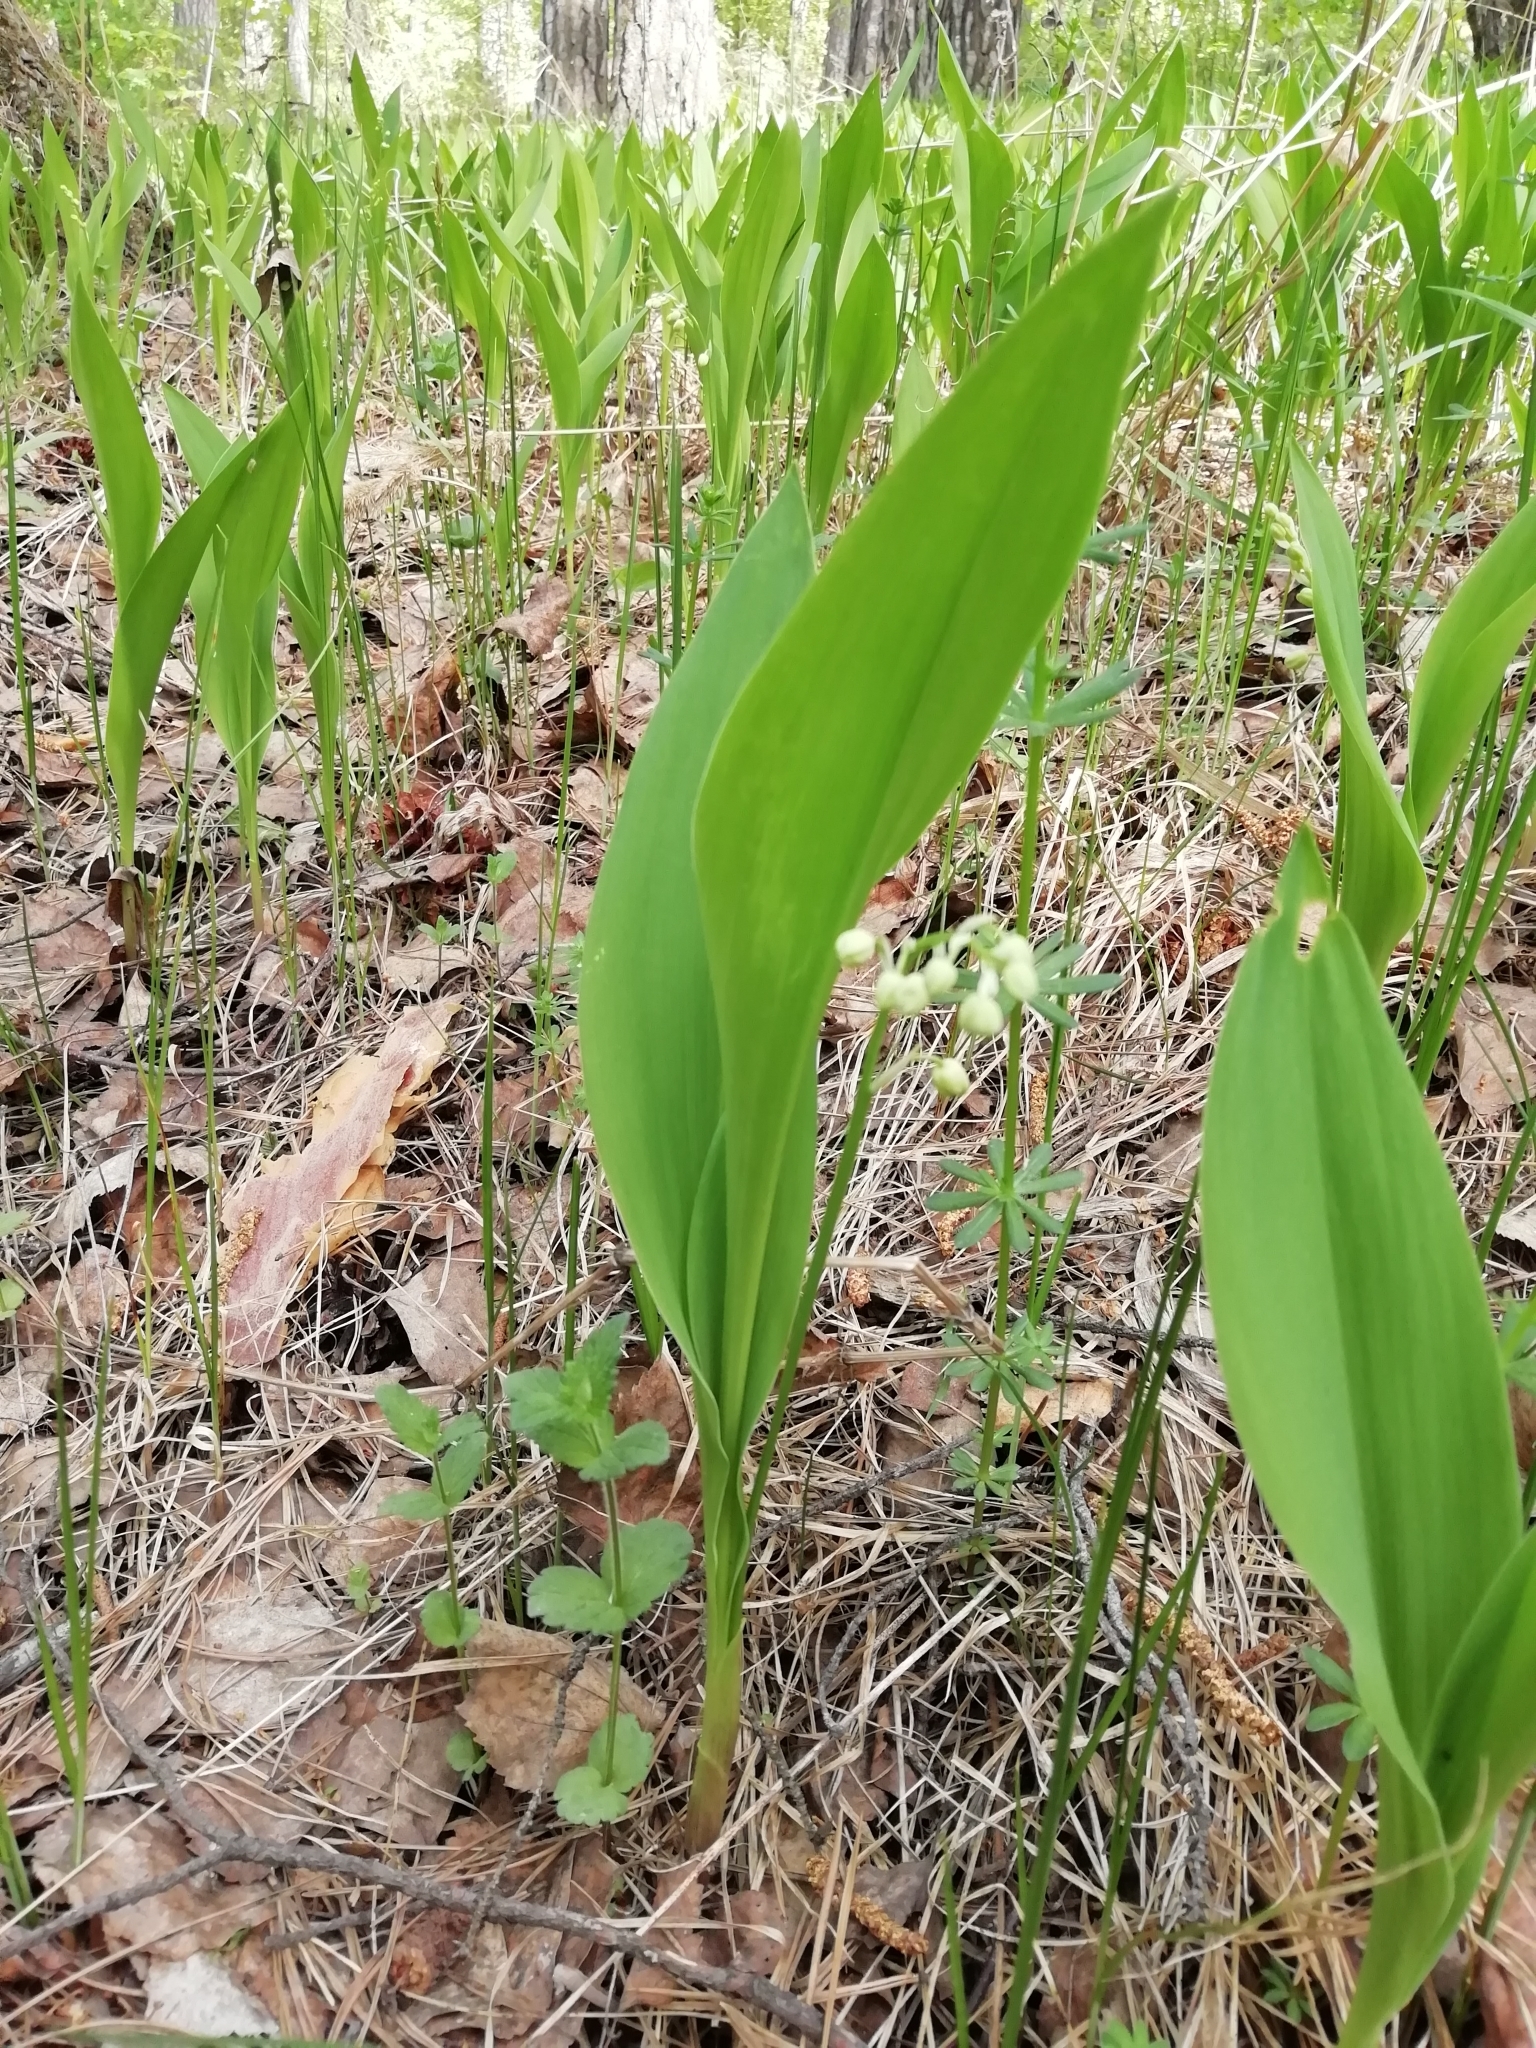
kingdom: Plantae
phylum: Tracheophyta
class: Liliopsida
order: Asparagales
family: Asparagaceae
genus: Convallaria
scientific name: Convallaria majalis
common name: Lily-of-the-valley
